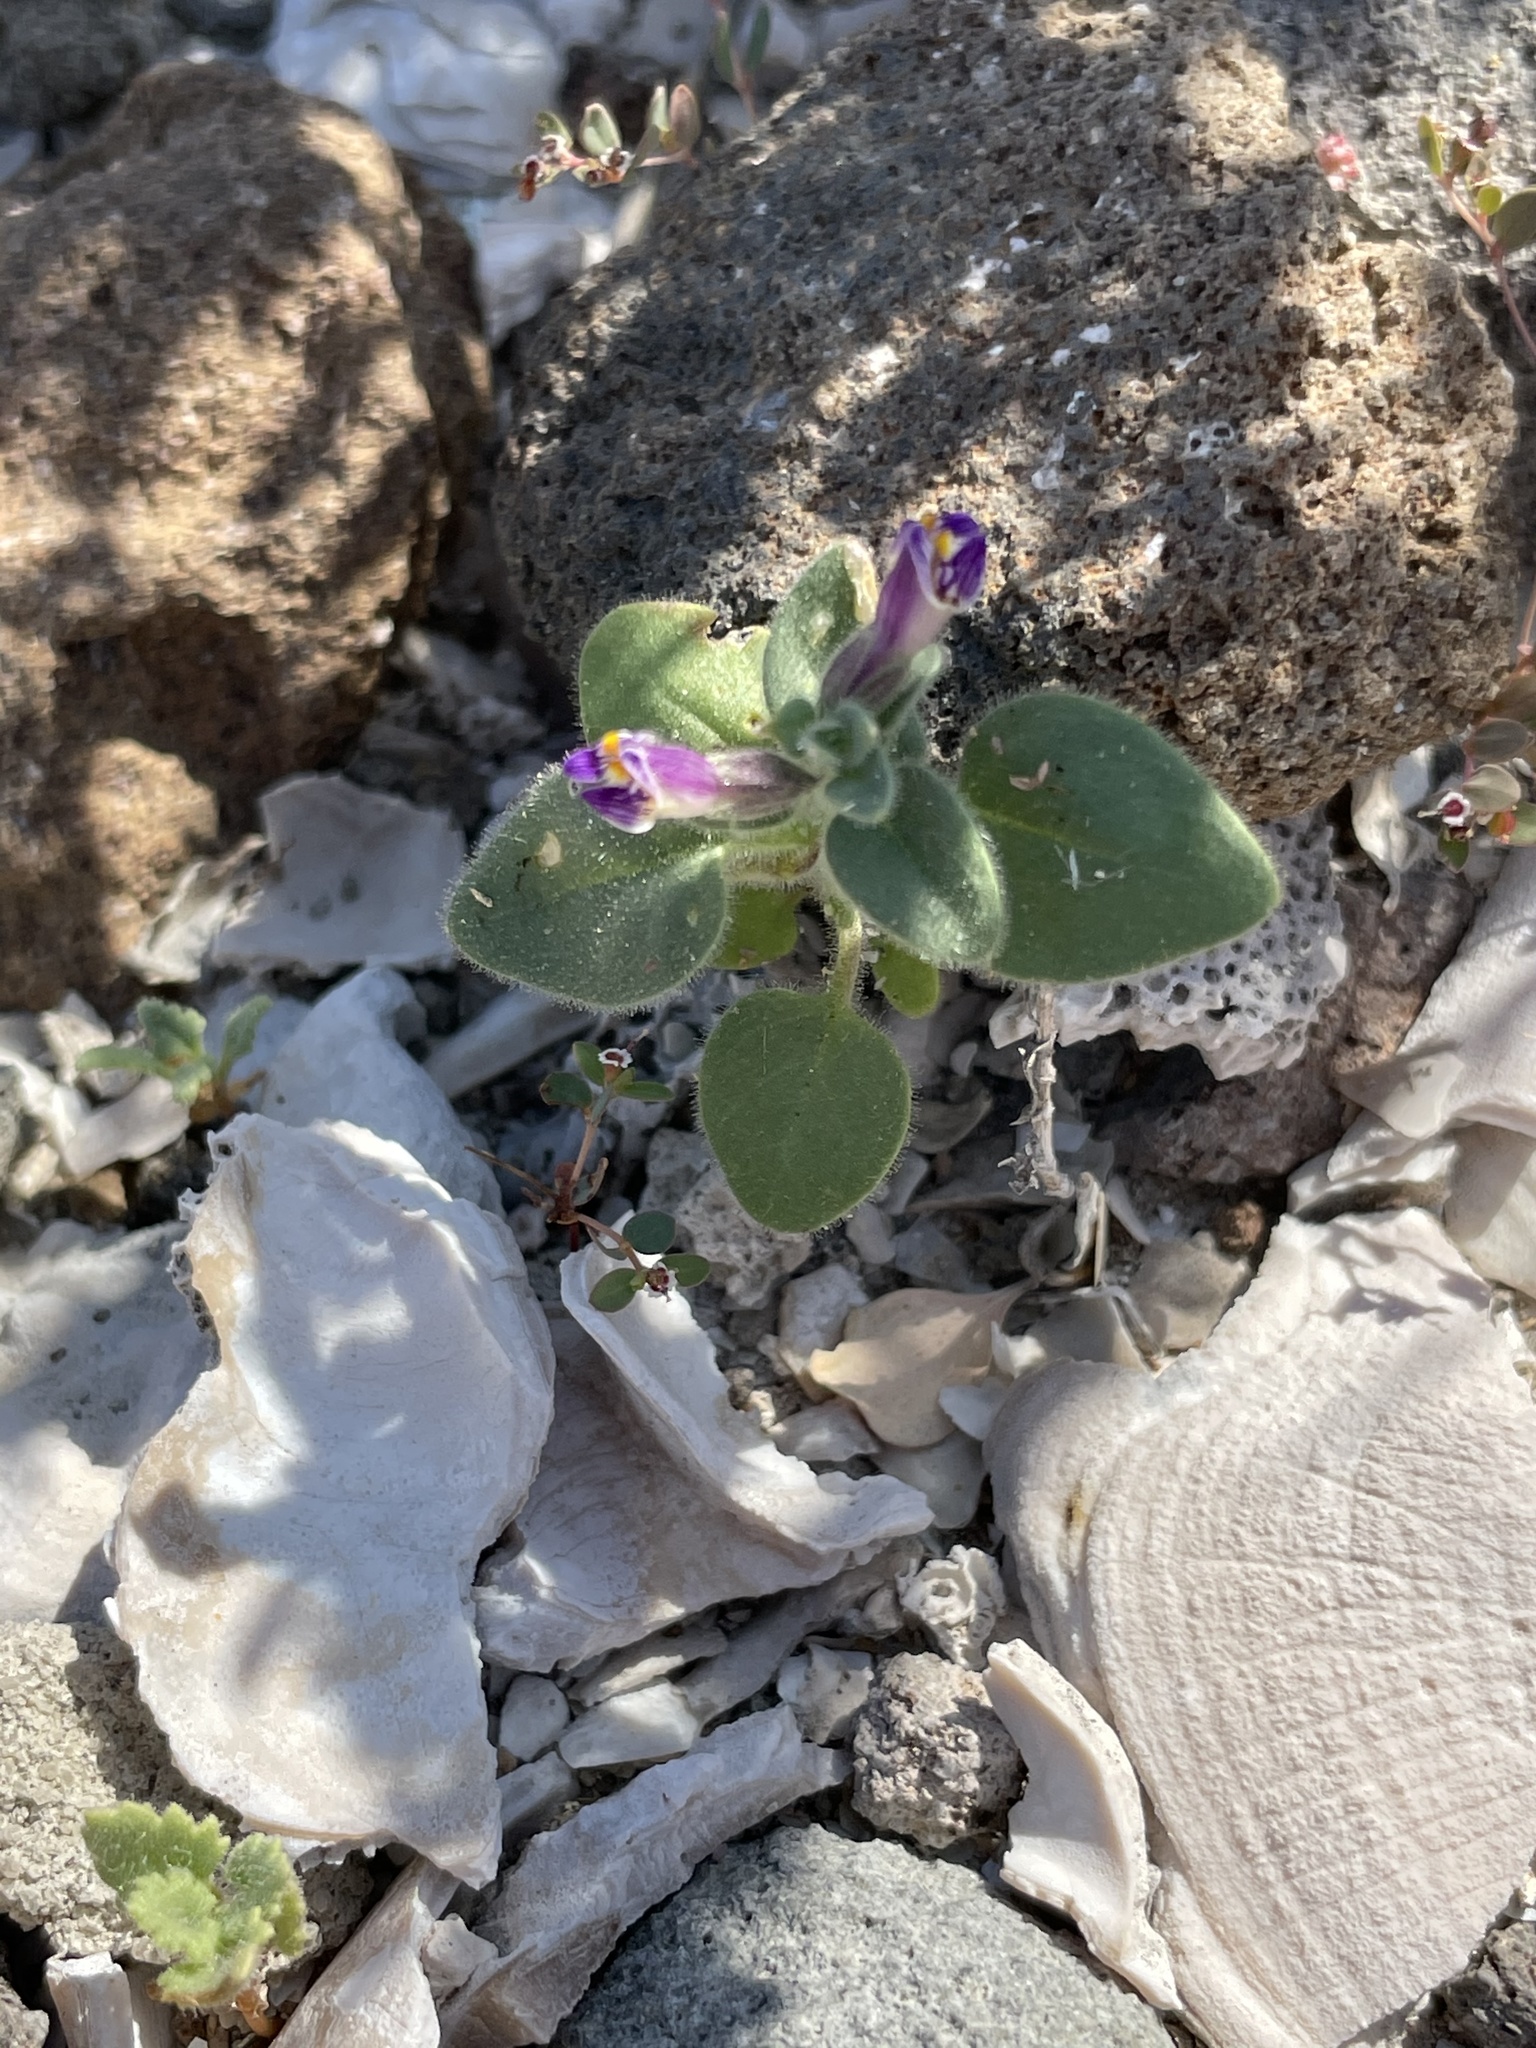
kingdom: Plantae
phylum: Tracheophyta
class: Magnoliopsida
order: Lamiales
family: Plantaginaceae
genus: Pseudorontium
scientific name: Pseudorontium cyathiferum
